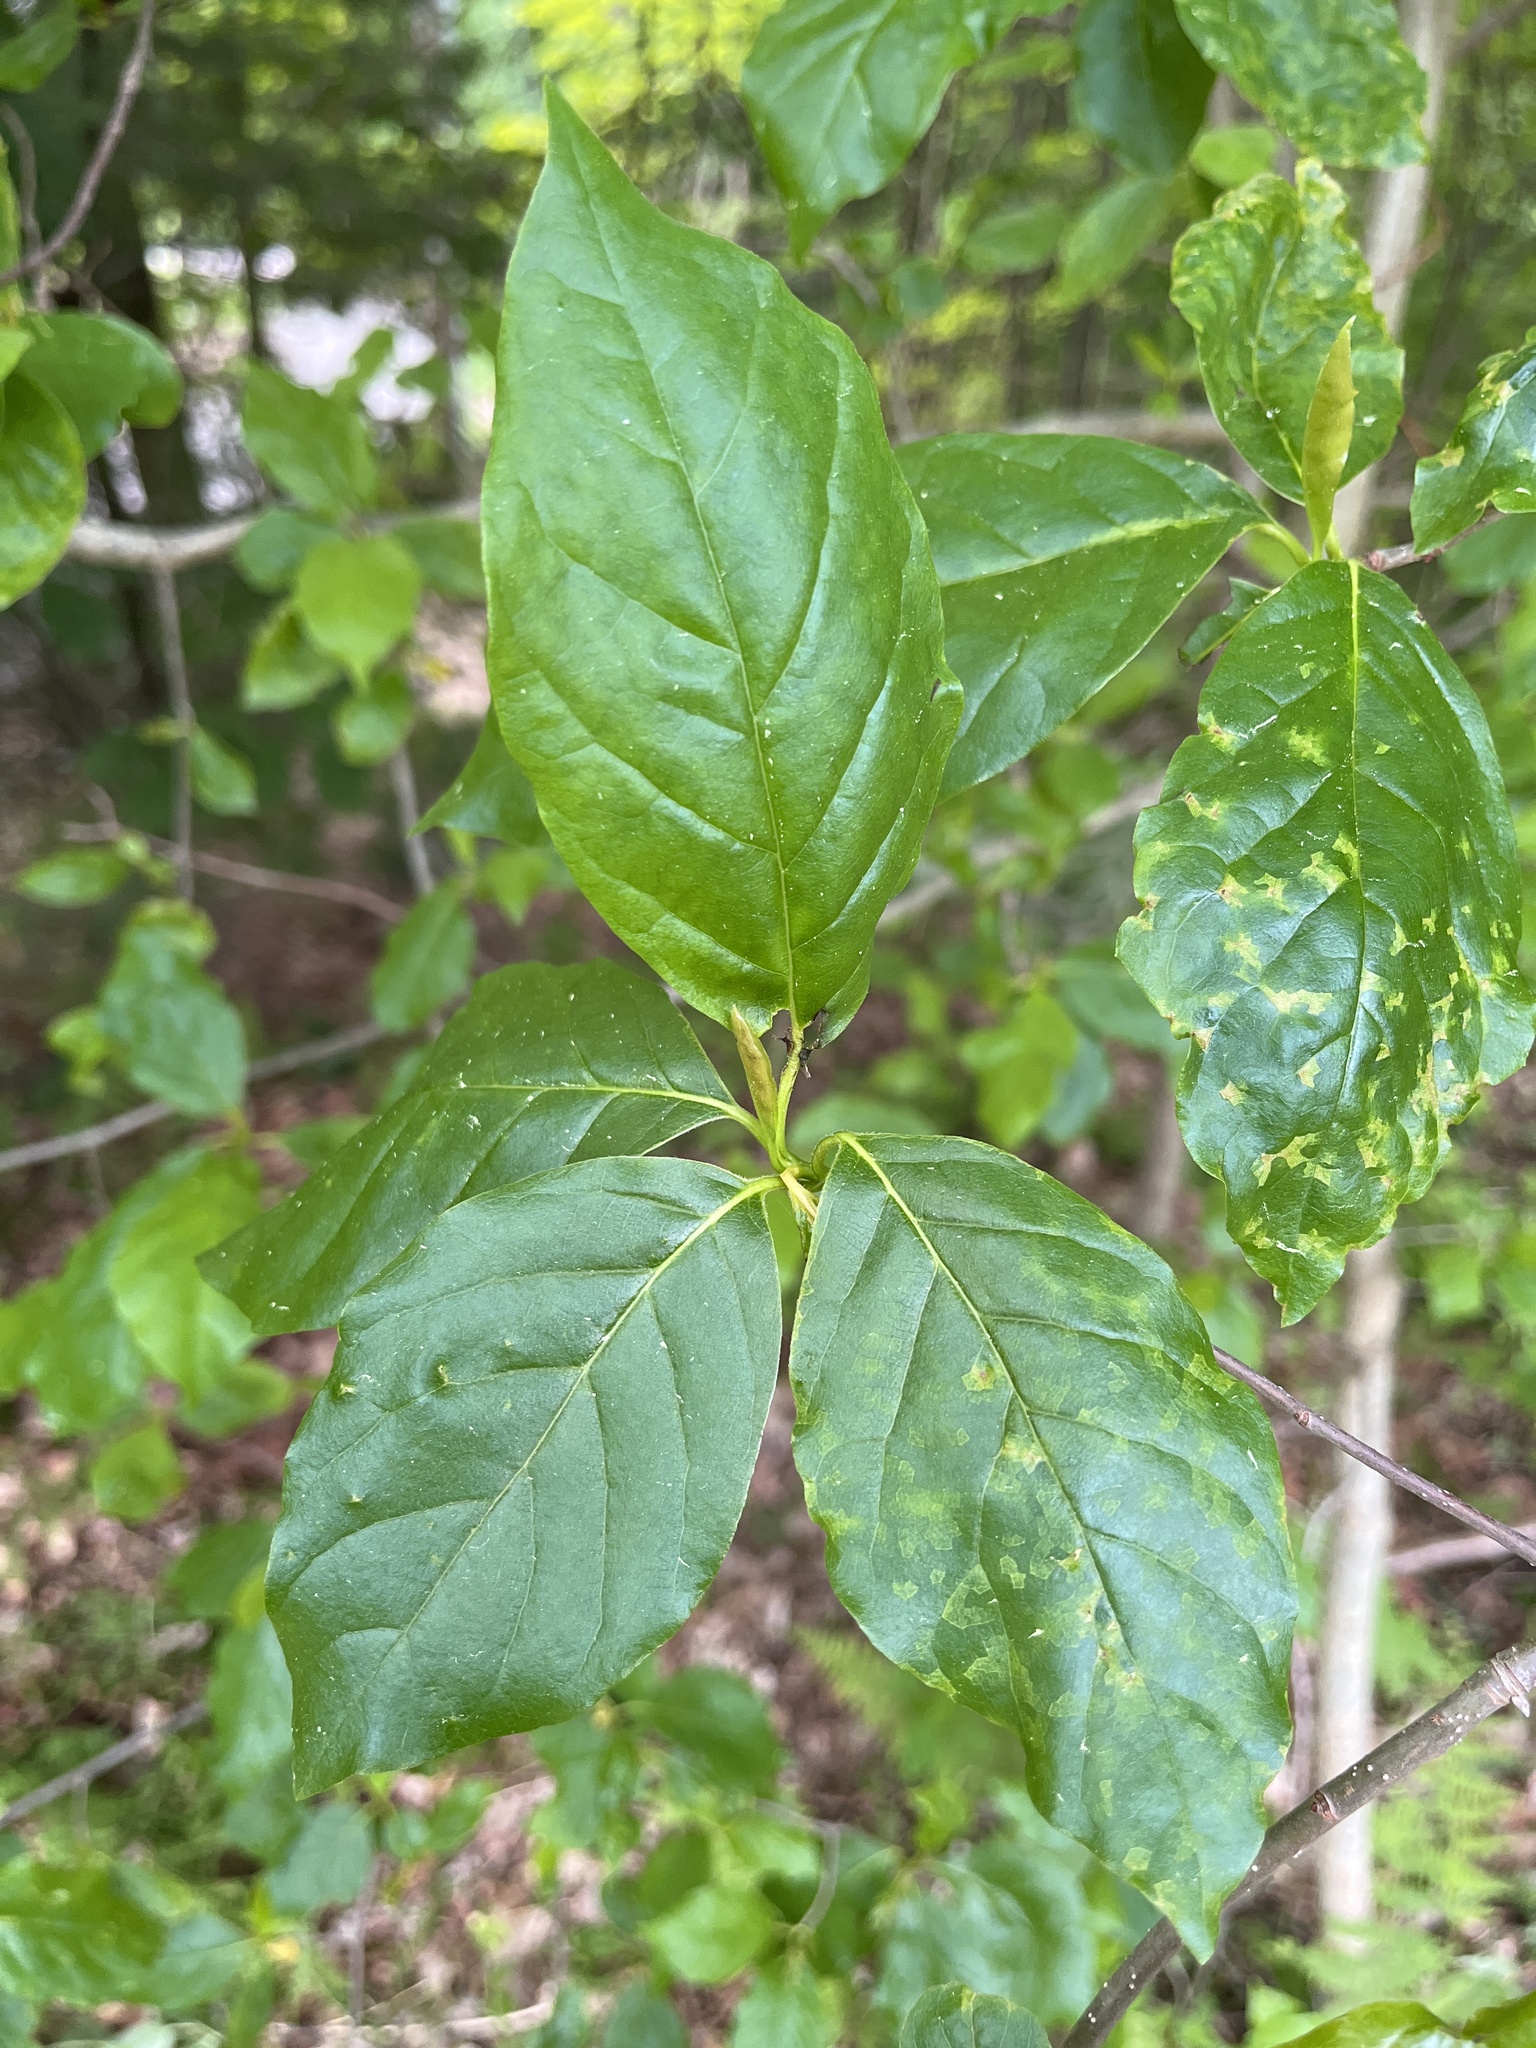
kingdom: Plantae
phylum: Tracheophyta
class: Magnoliopsida
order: Cornales
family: Nyssaceae
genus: Nyssa
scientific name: Nyssa sylvatica
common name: Black tupelo
